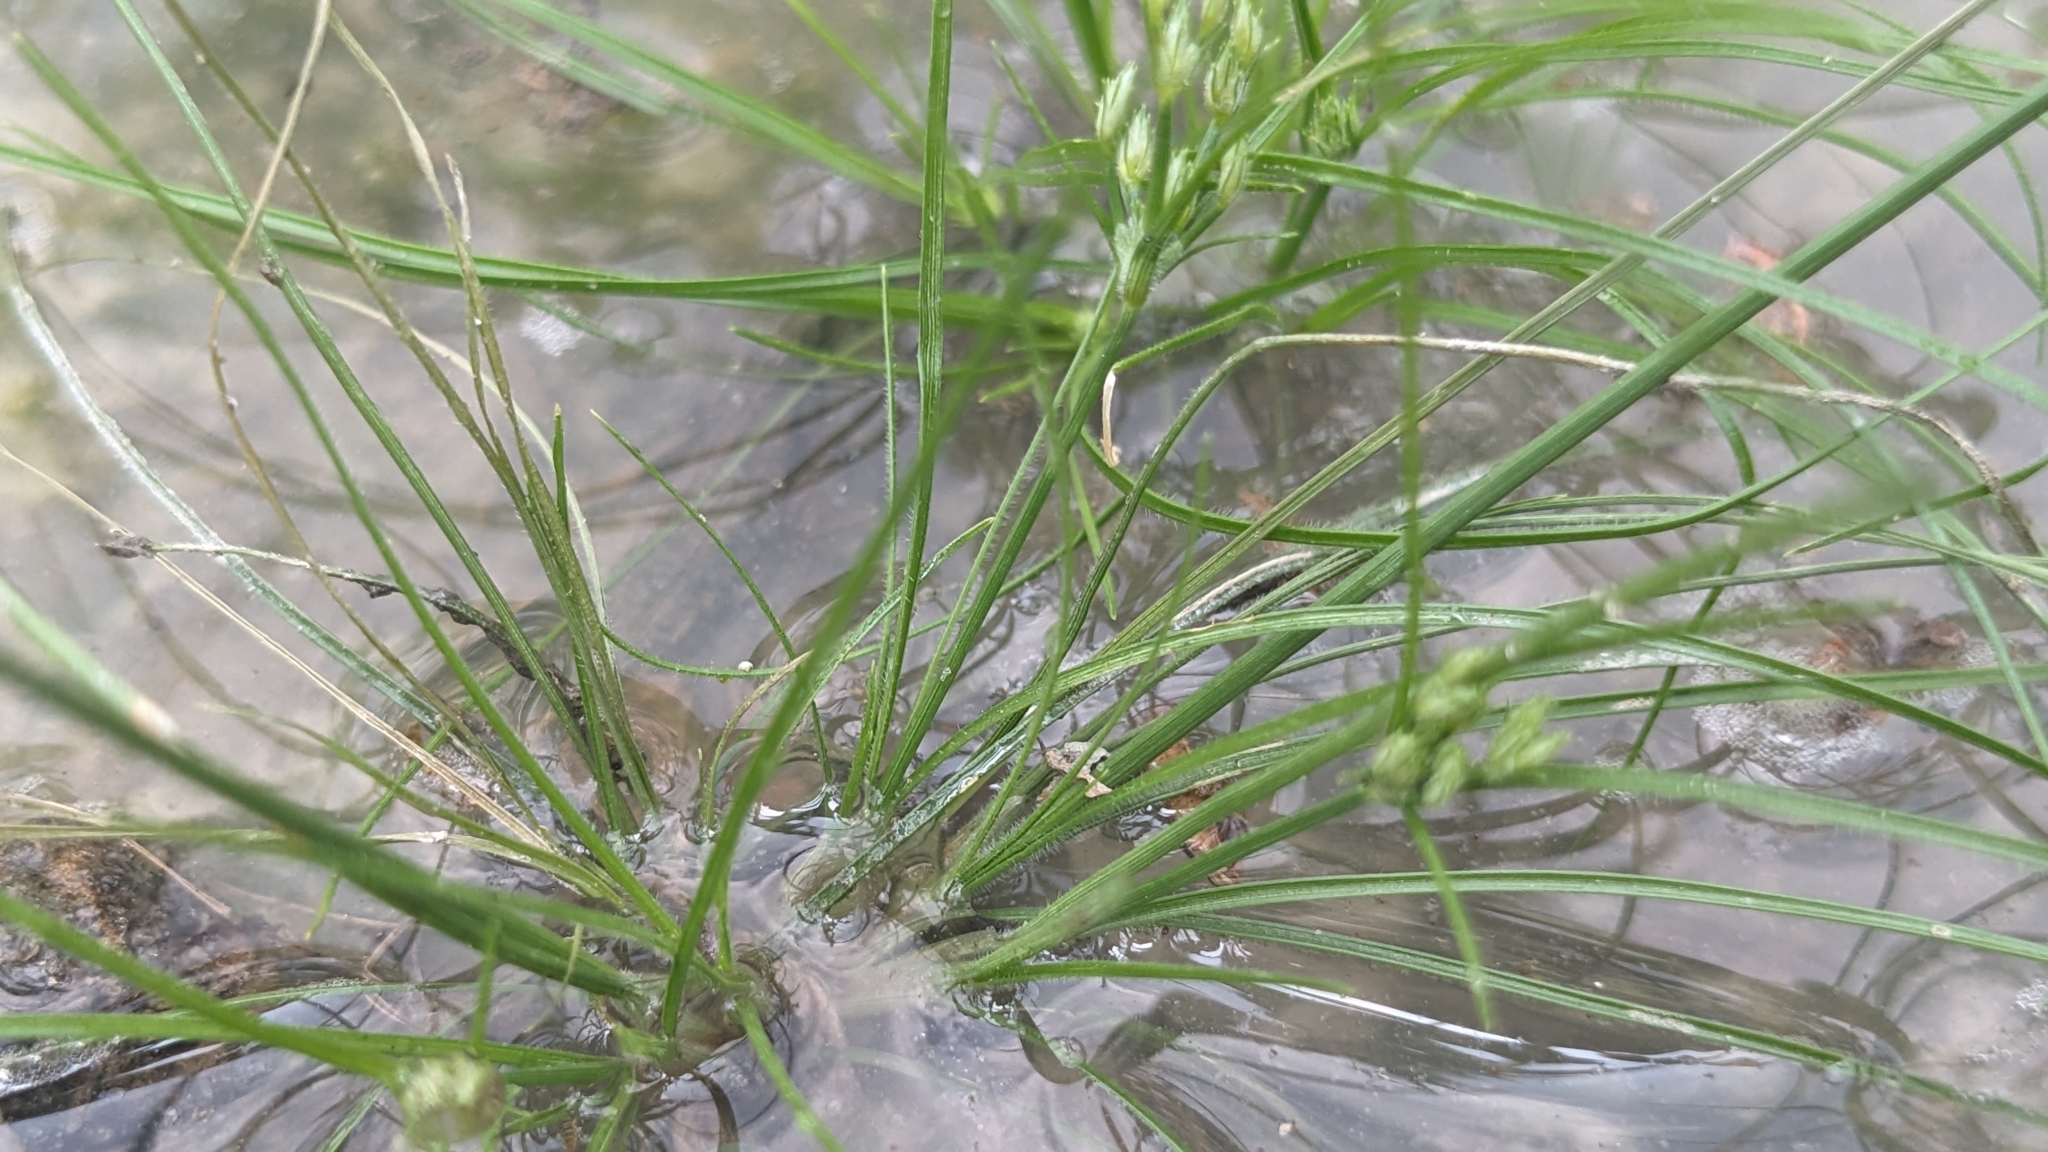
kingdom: Plantae
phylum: Tracheophyta
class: Liliopsida
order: Poales
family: Cyperaceae
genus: Fimbristylis
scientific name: Fimbristylis aestivalis
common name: Summer fimbry
